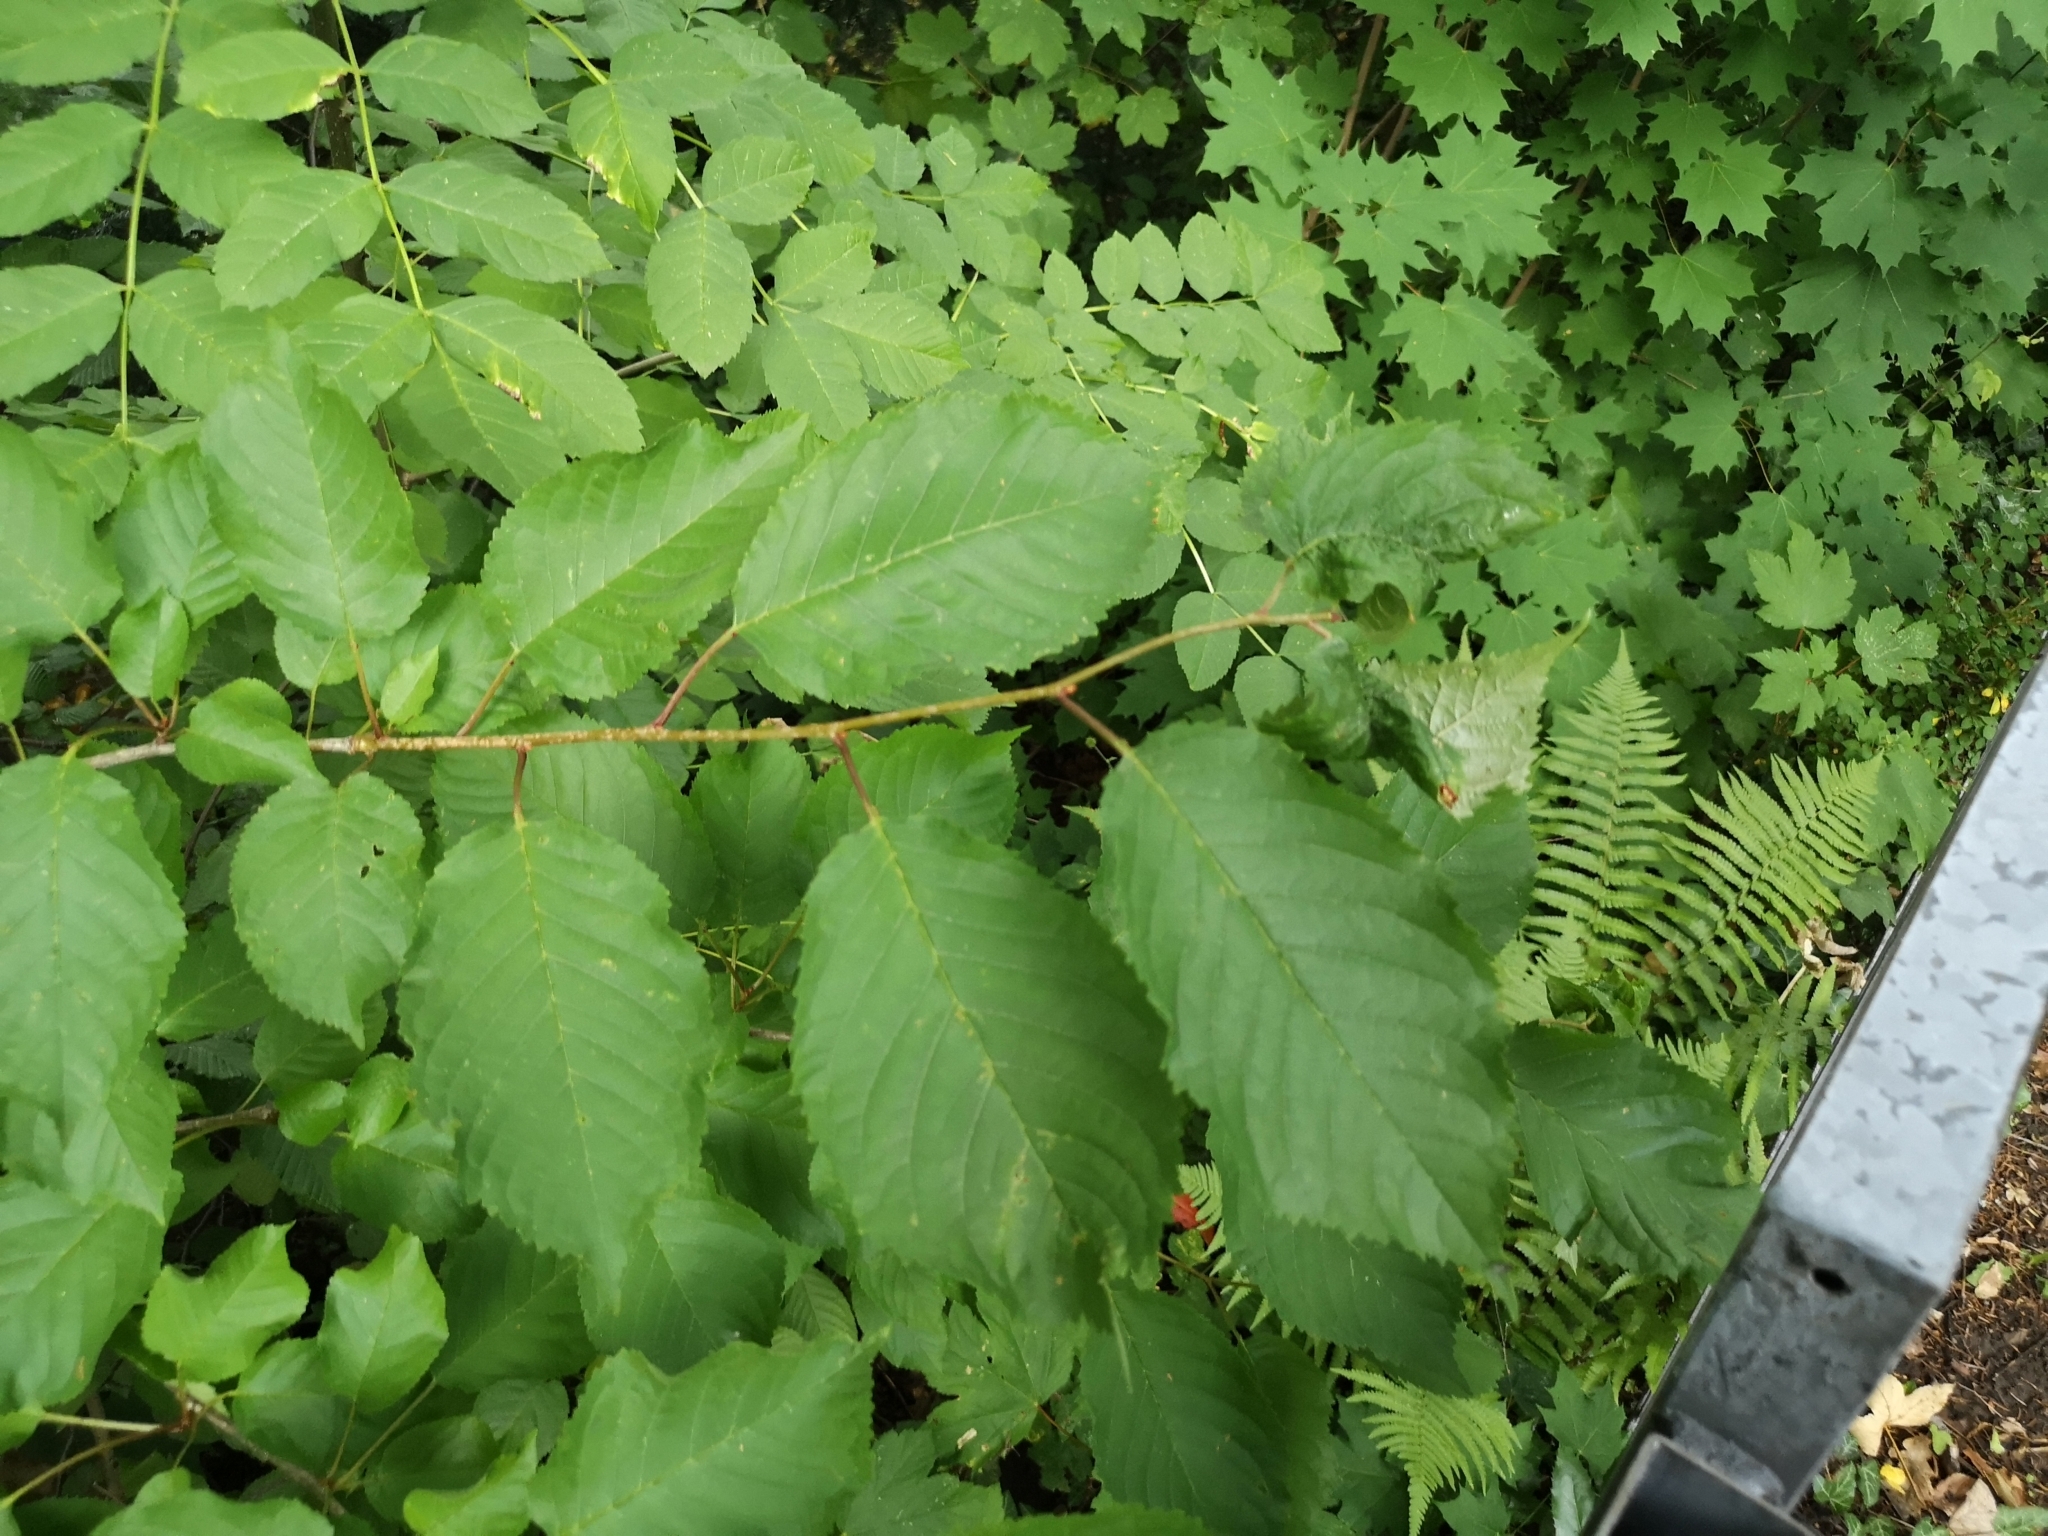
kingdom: Plantae
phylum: Tracheophyta
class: Magnoliopsida
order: Rosales
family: Rosaceae
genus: Prunus
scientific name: Prunus avium
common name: Sweet cherry
